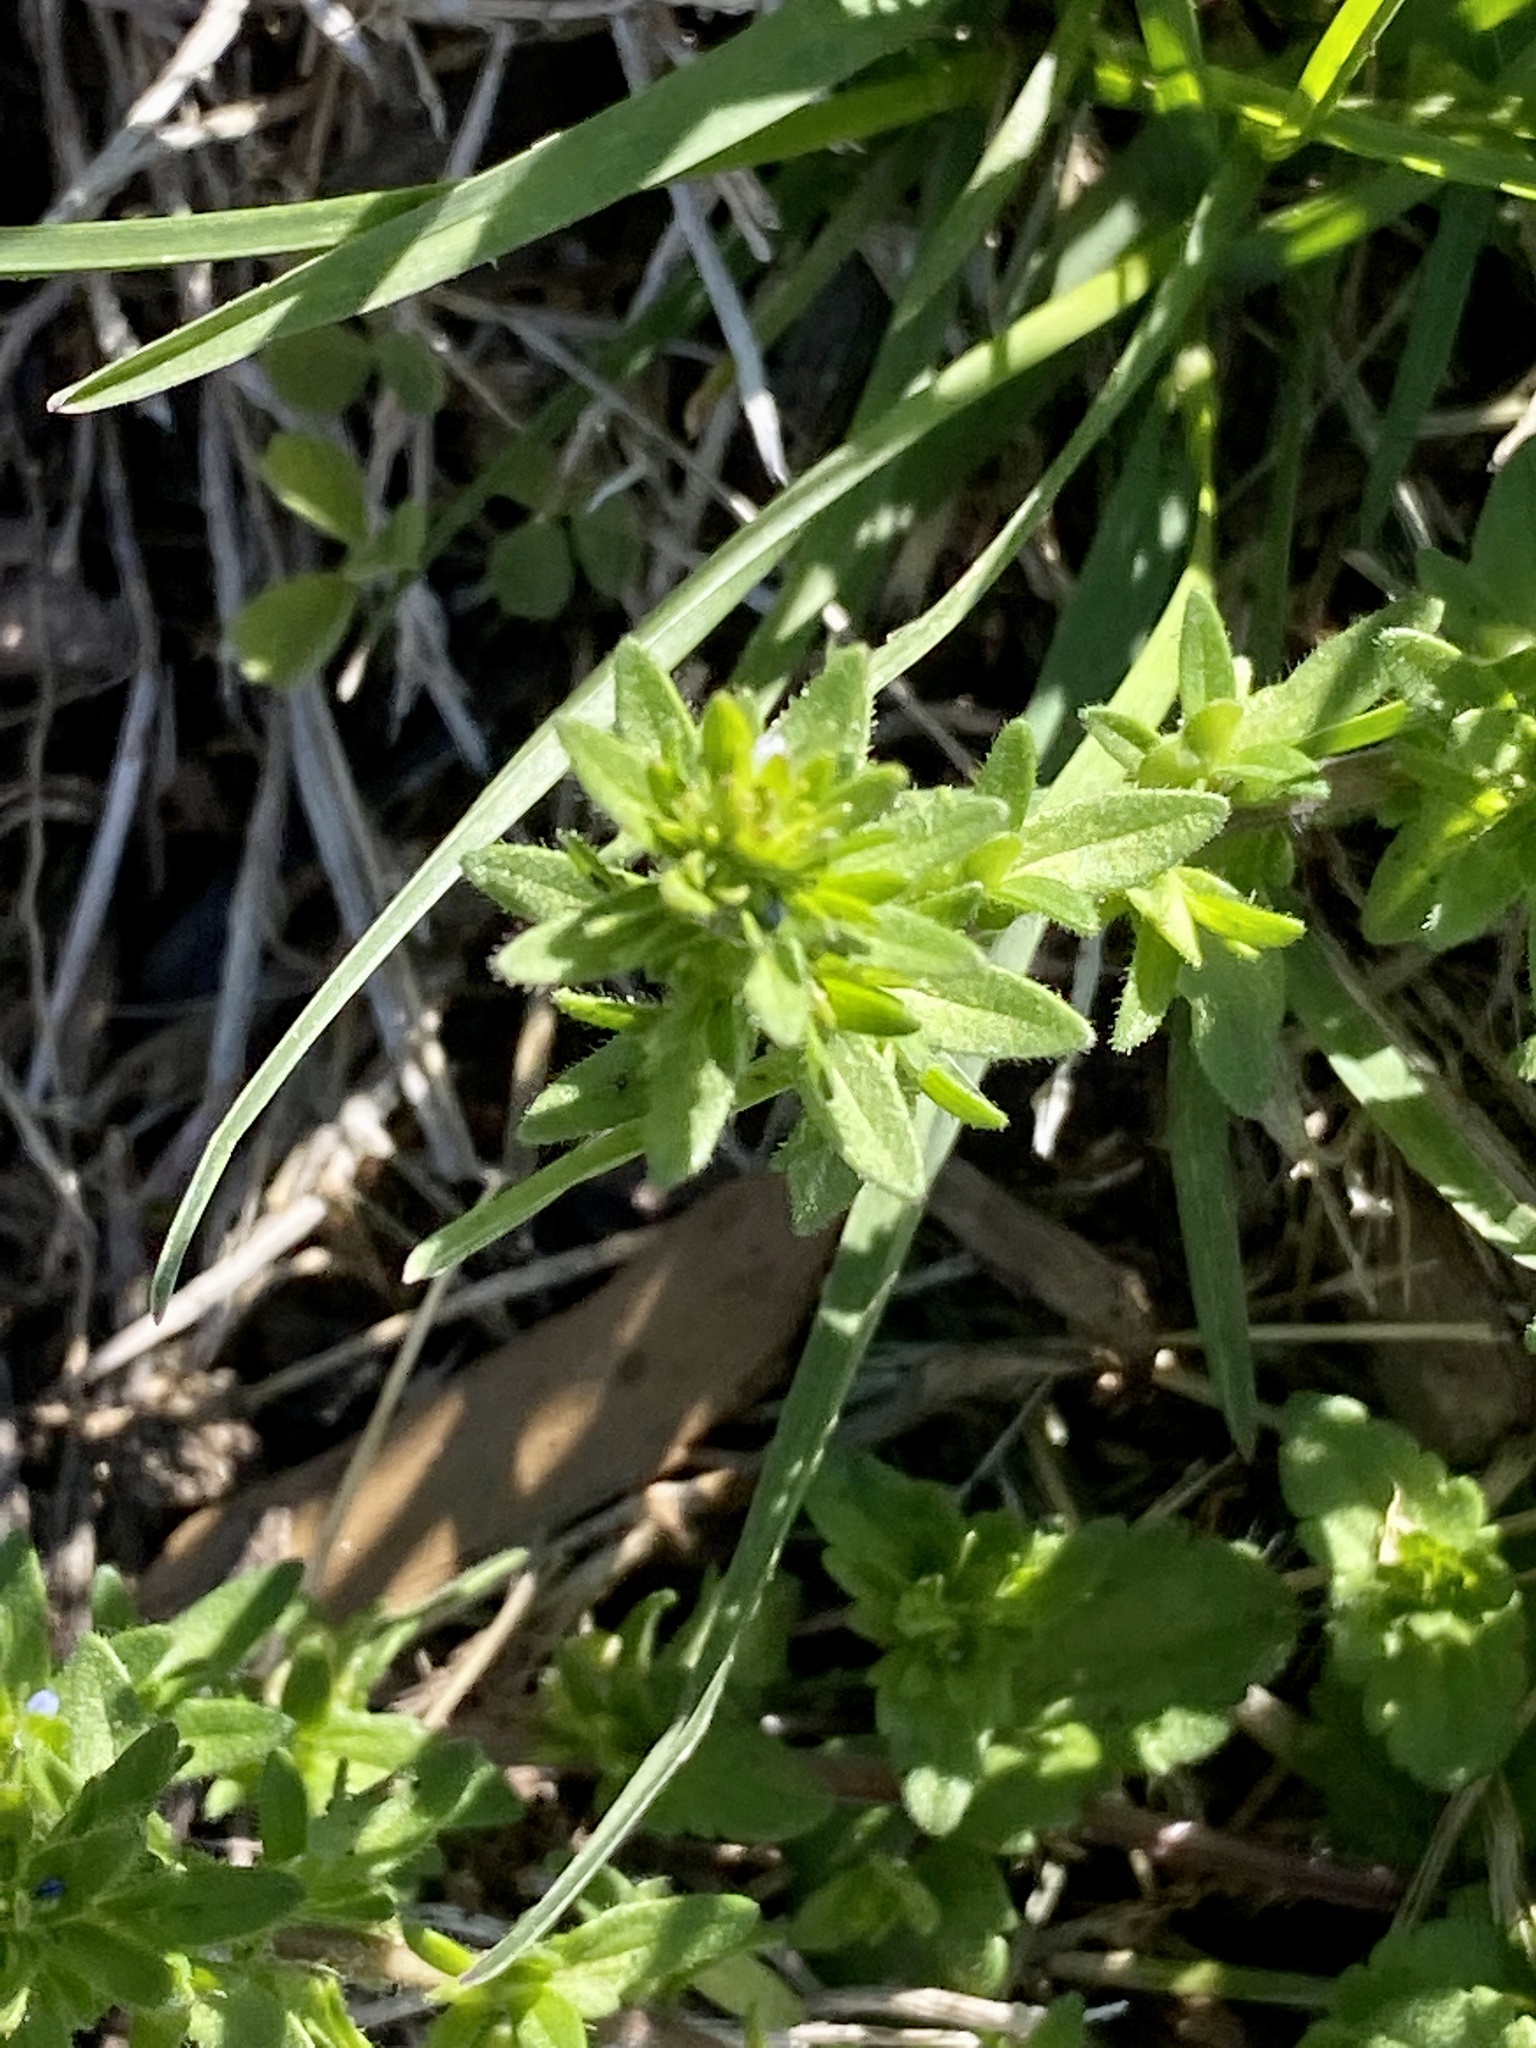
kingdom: Plantae
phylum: Tracheophyta
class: Magnoliopsida
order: Lamiales
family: Plantaginaceae
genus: Veronica
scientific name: Veronica arvensis
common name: Corn speedwell
